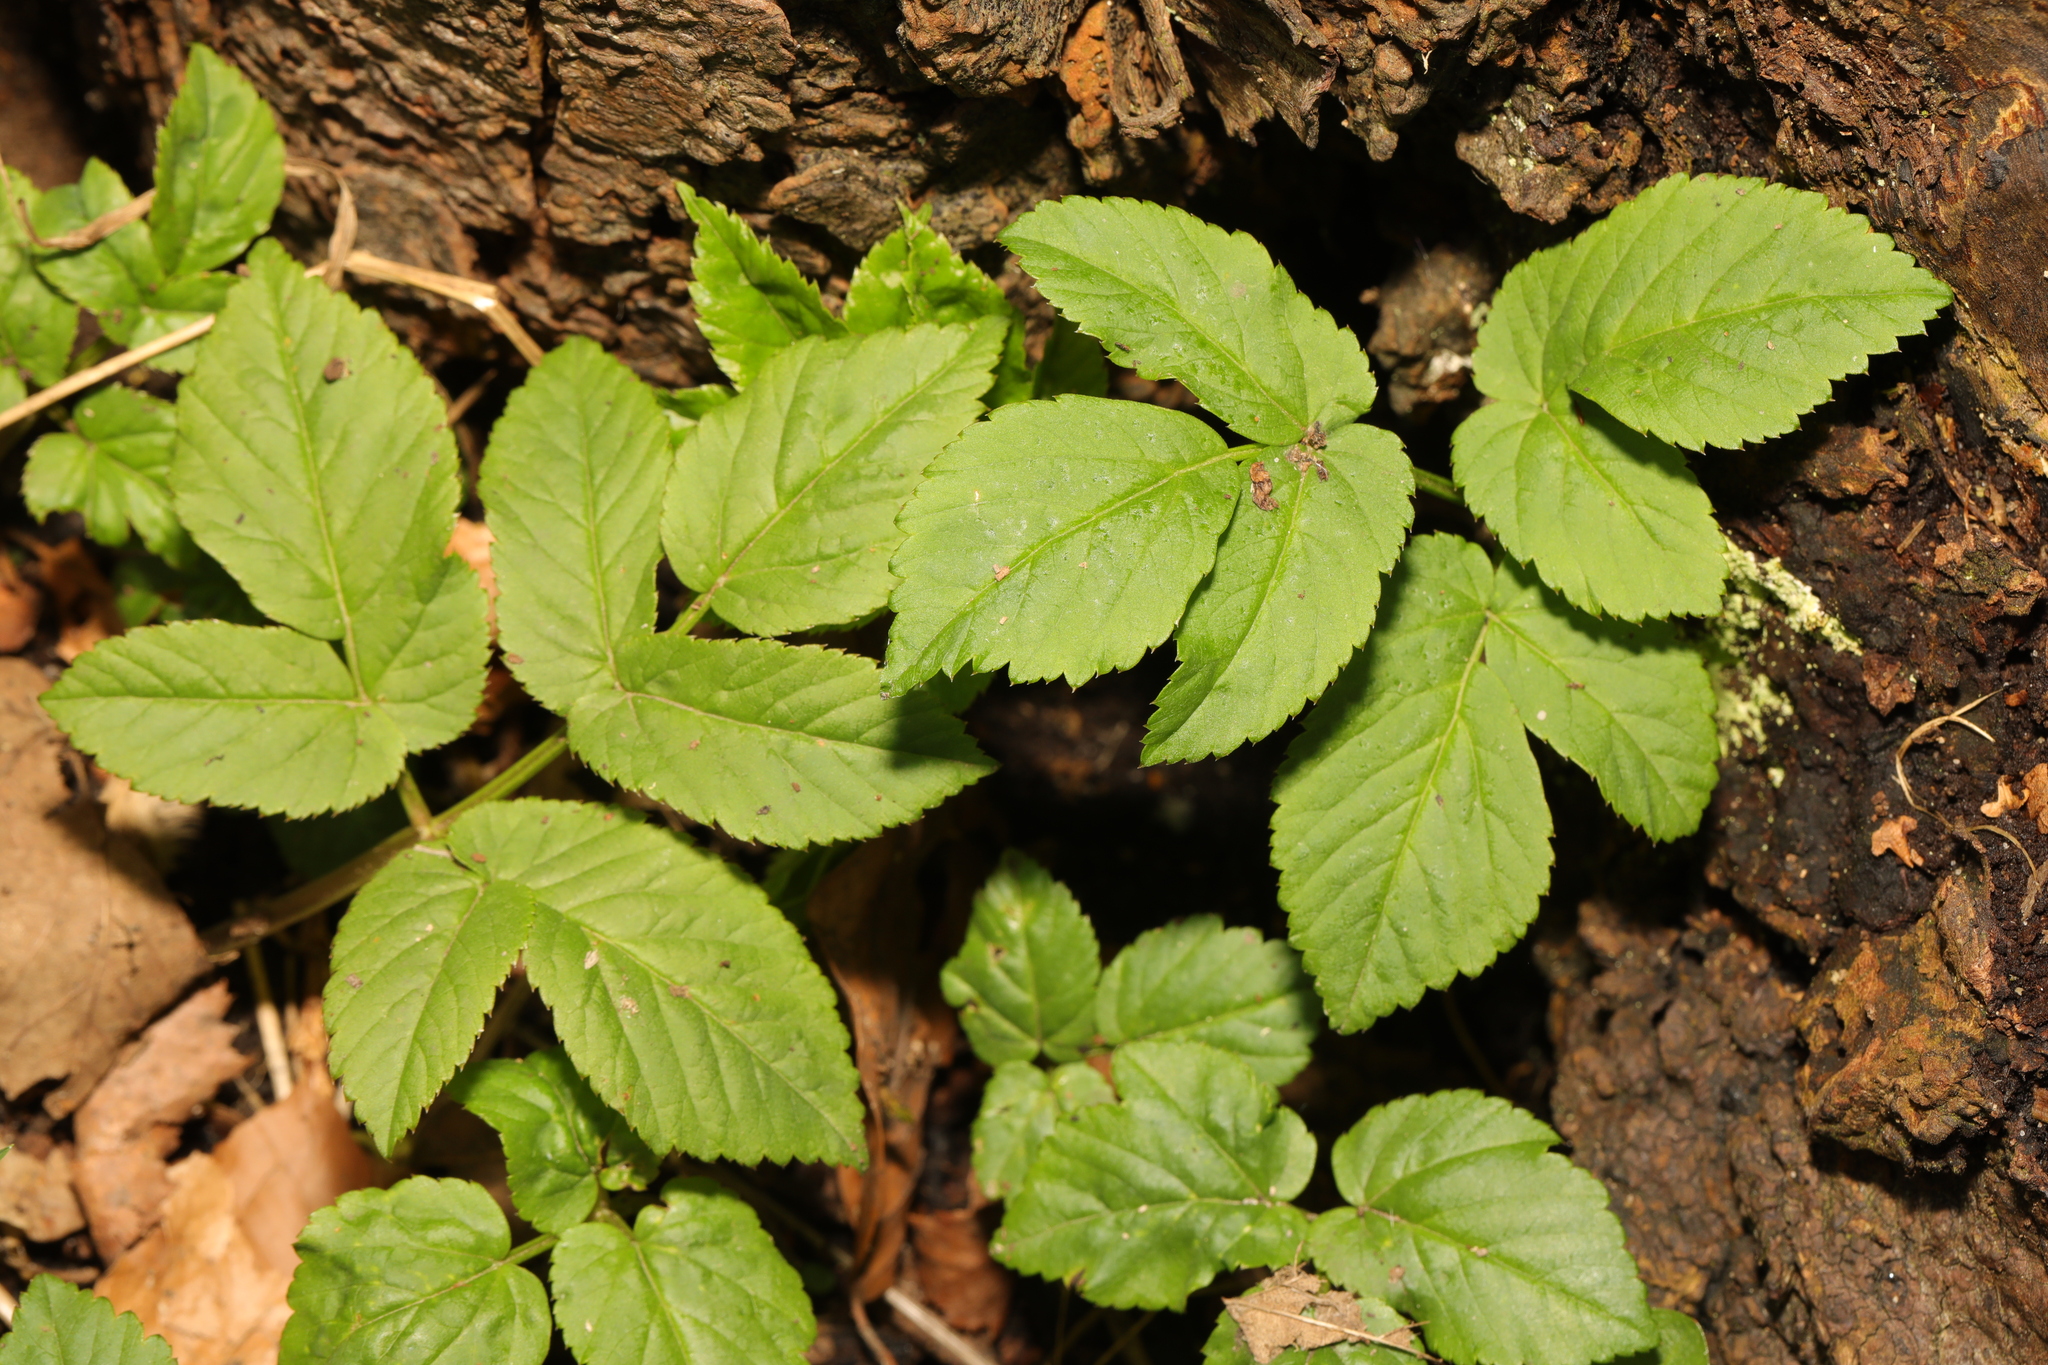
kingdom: Plantae
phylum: Tracheophyta
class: Magnoliopsida
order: Apiales
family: Apiaceae
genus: Aegopodium
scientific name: Aegopodium podagraria
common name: Ground-elder
